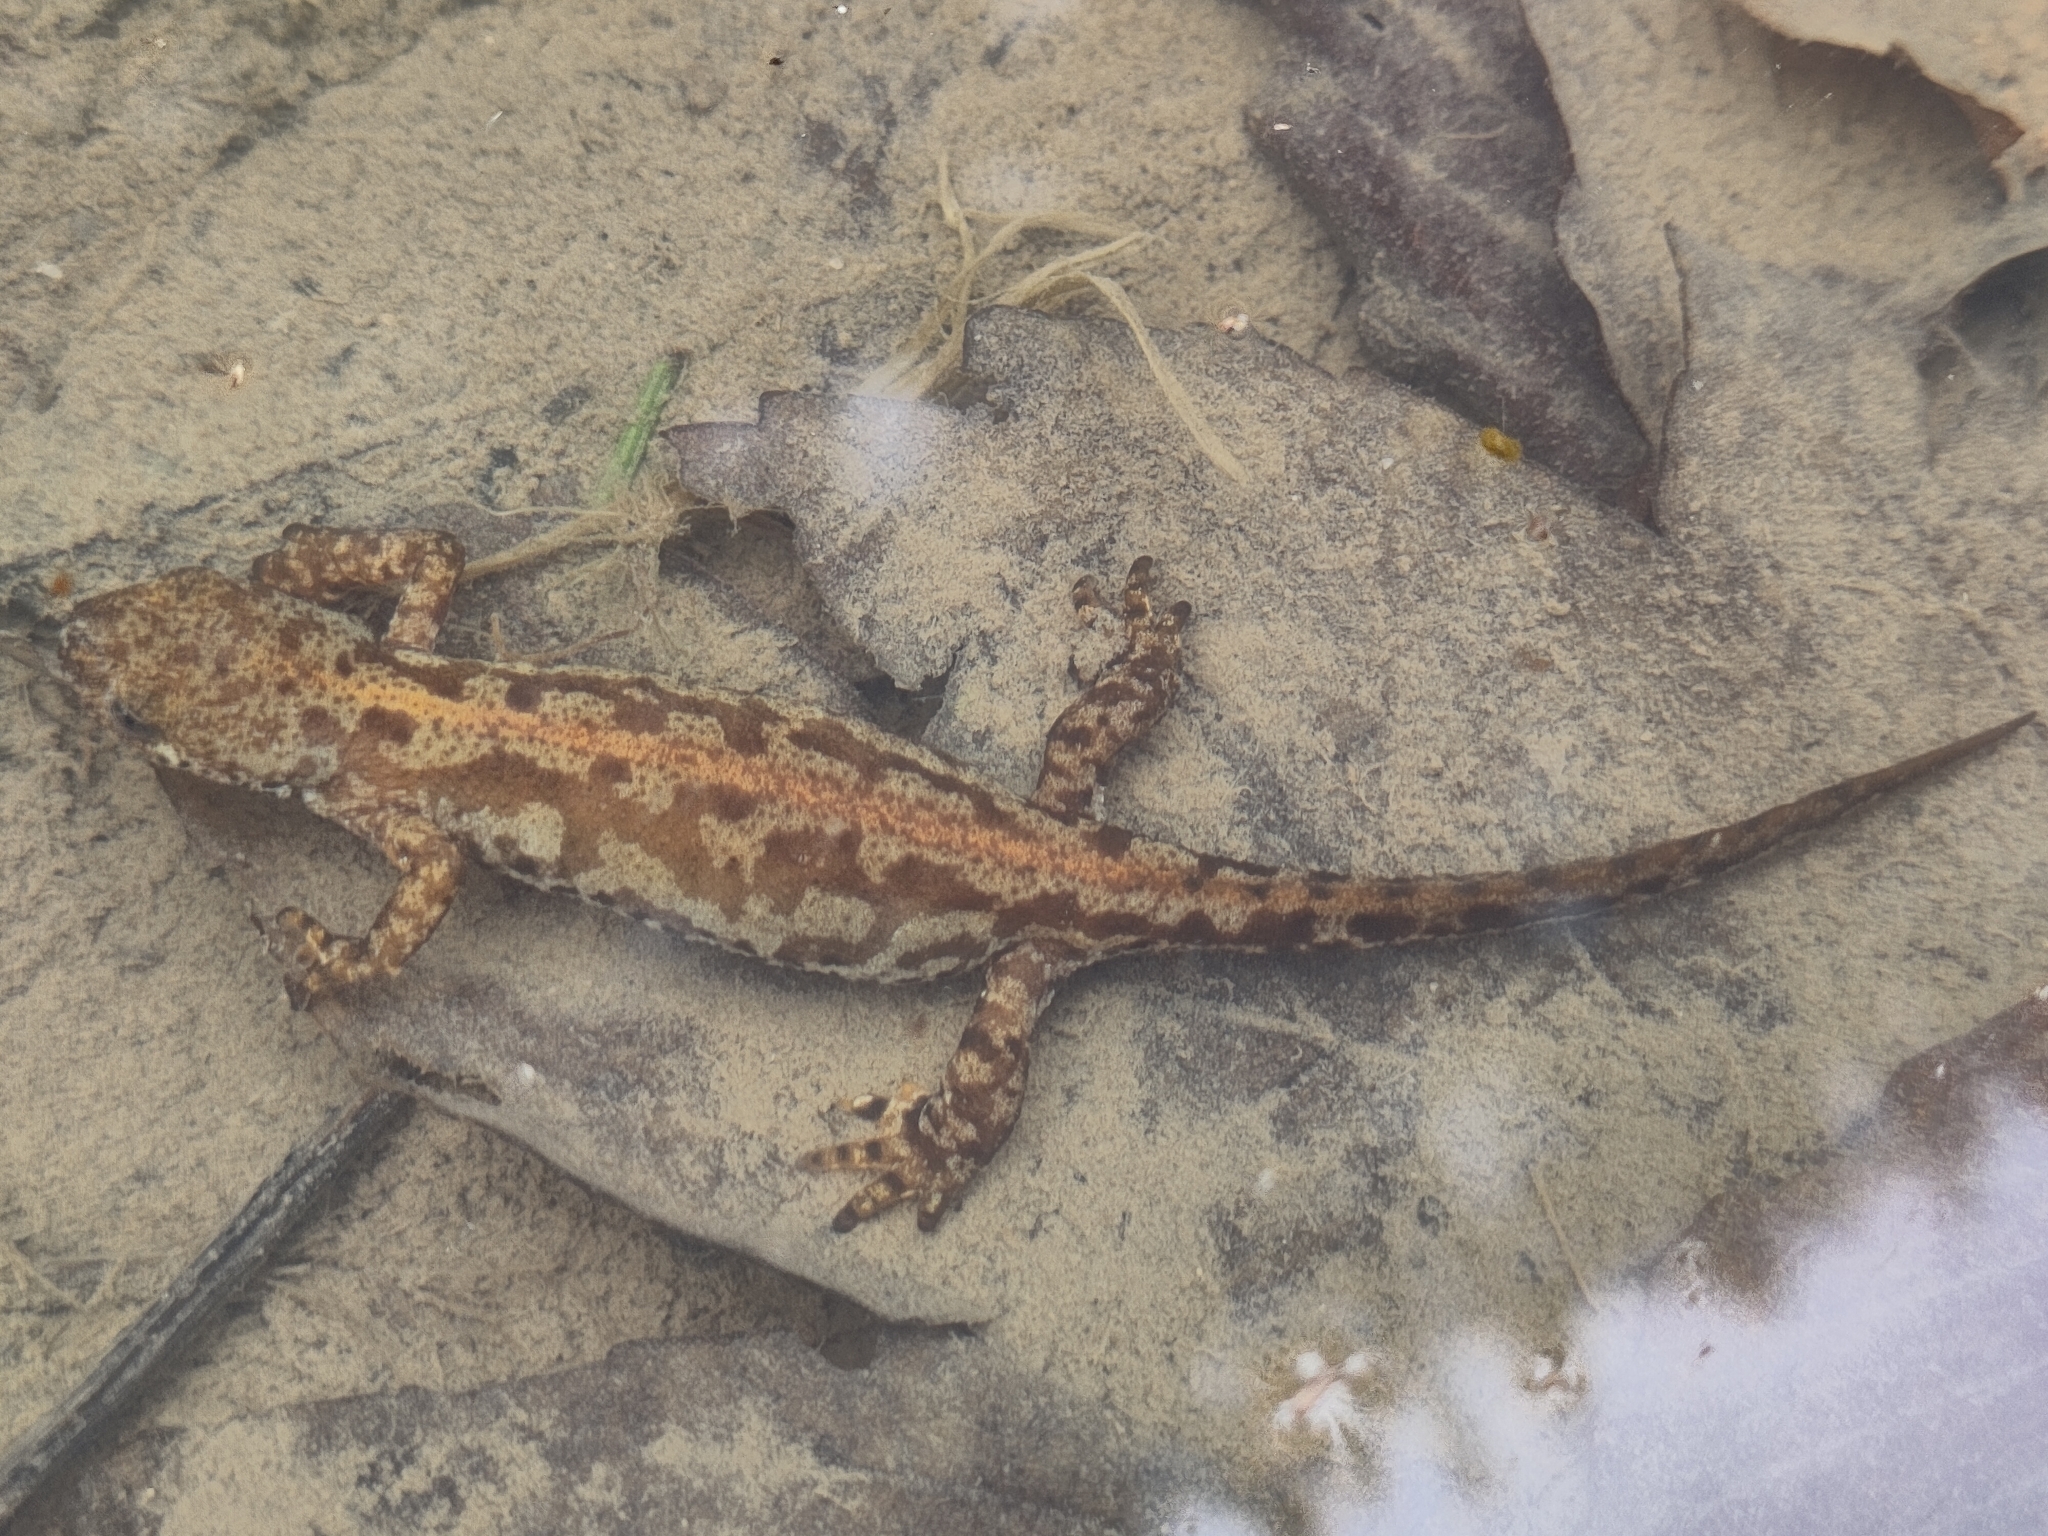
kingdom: Animalia
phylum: Chordata
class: Amphibia
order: Caudata
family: Salamandridae
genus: Ichthyosaura
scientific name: Ichthyosaura alpestris
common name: Alpine newt
